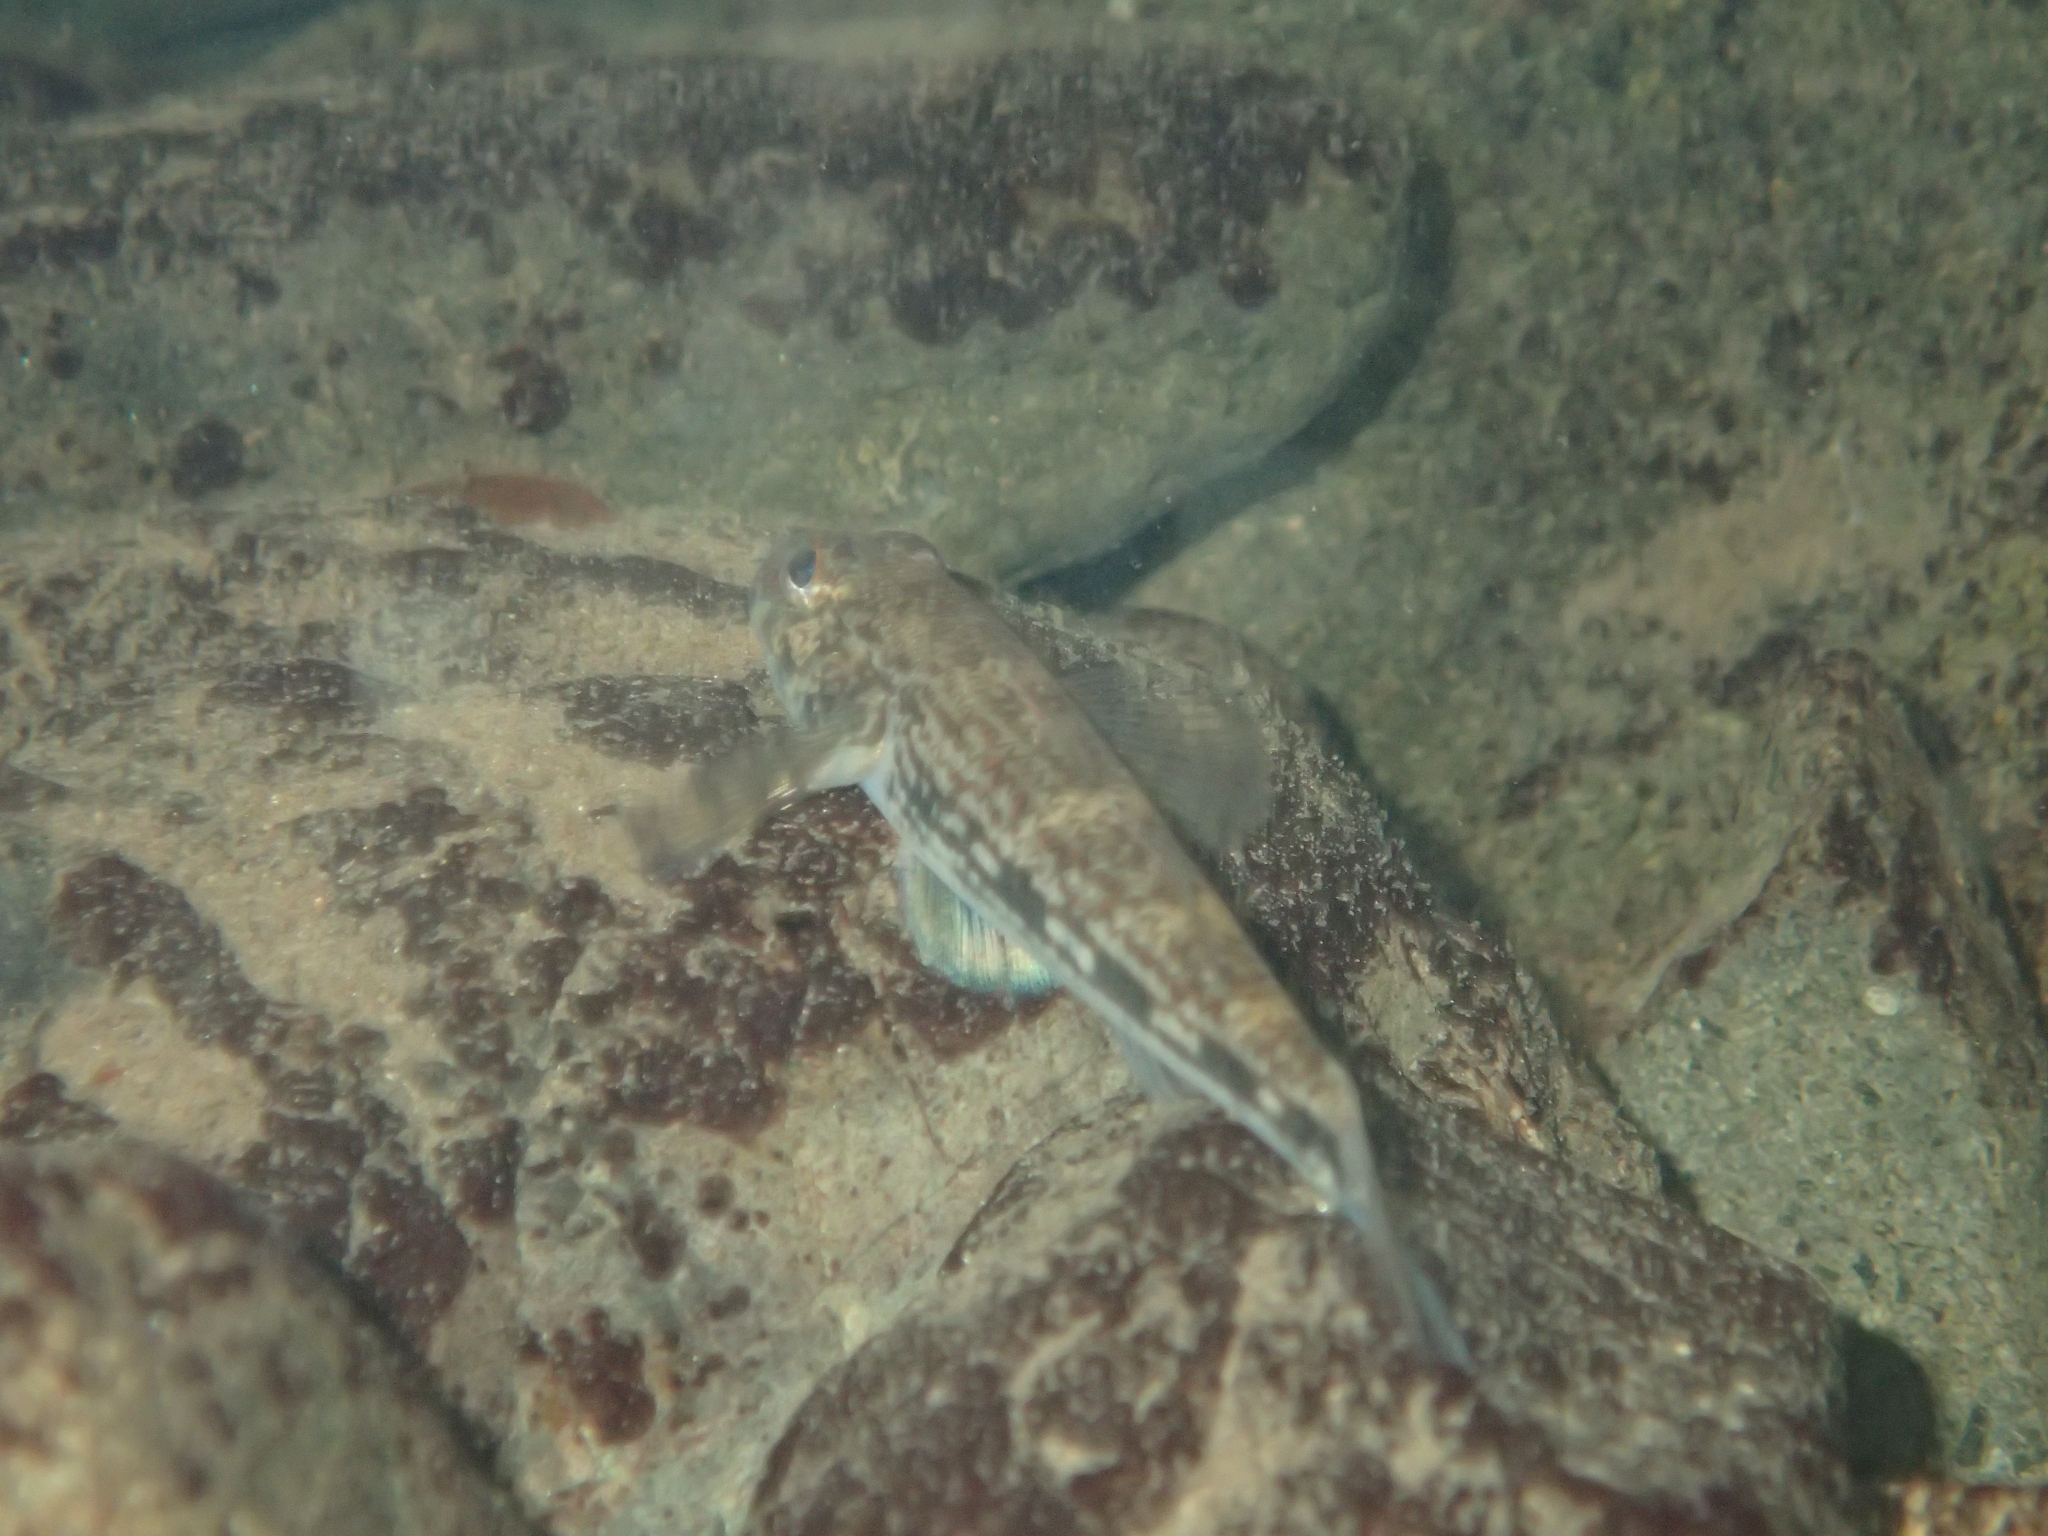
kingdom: Animalia
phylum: Chordata
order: Perciformes
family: Gobiidae
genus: Glossogobius
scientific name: Glossogobius illimis
